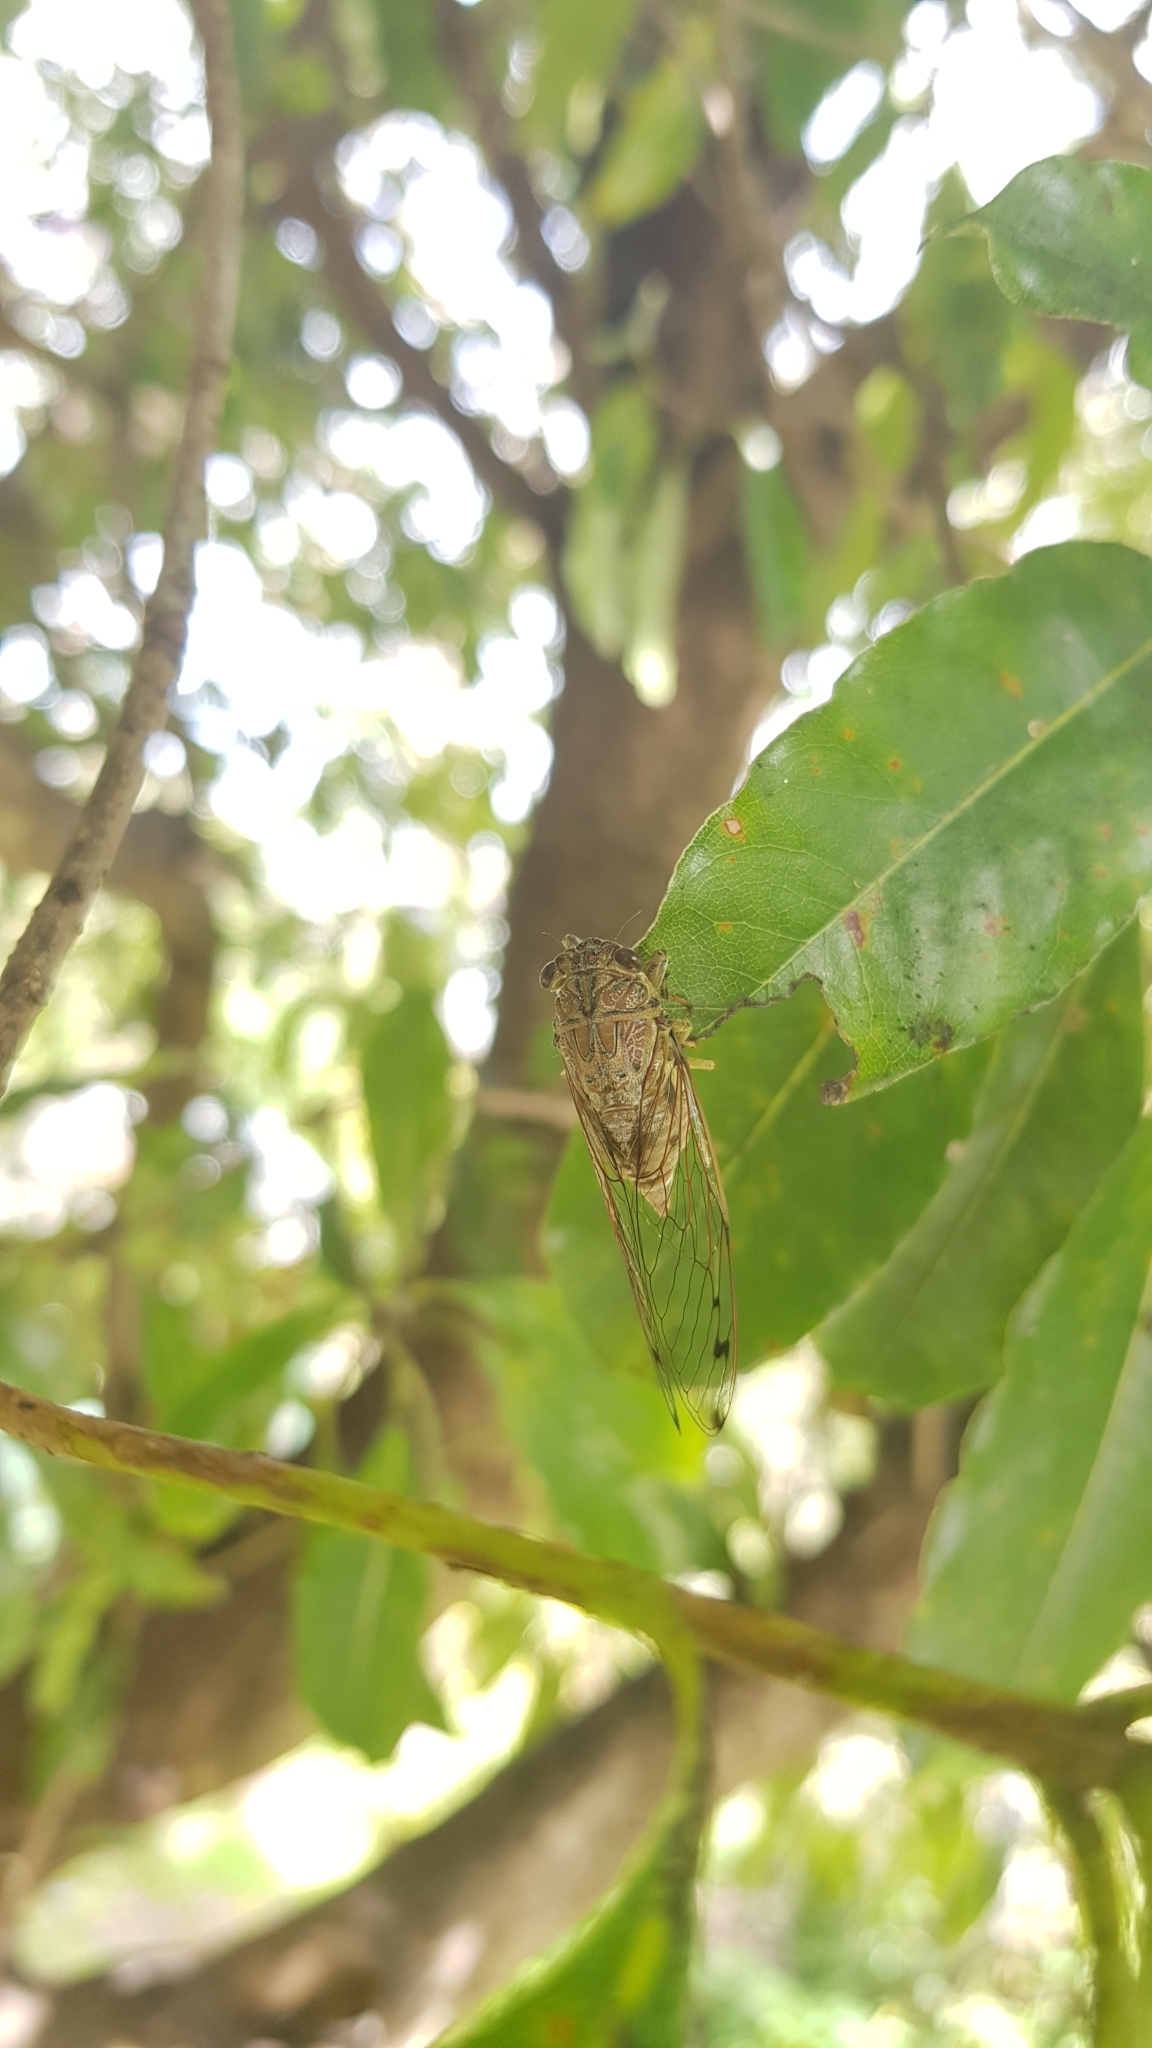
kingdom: Animalia
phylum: Arthropoda
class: Insecta
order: Hemiptera
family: Cicadidae
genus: Tamasa
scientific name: Tamasa tristigma
